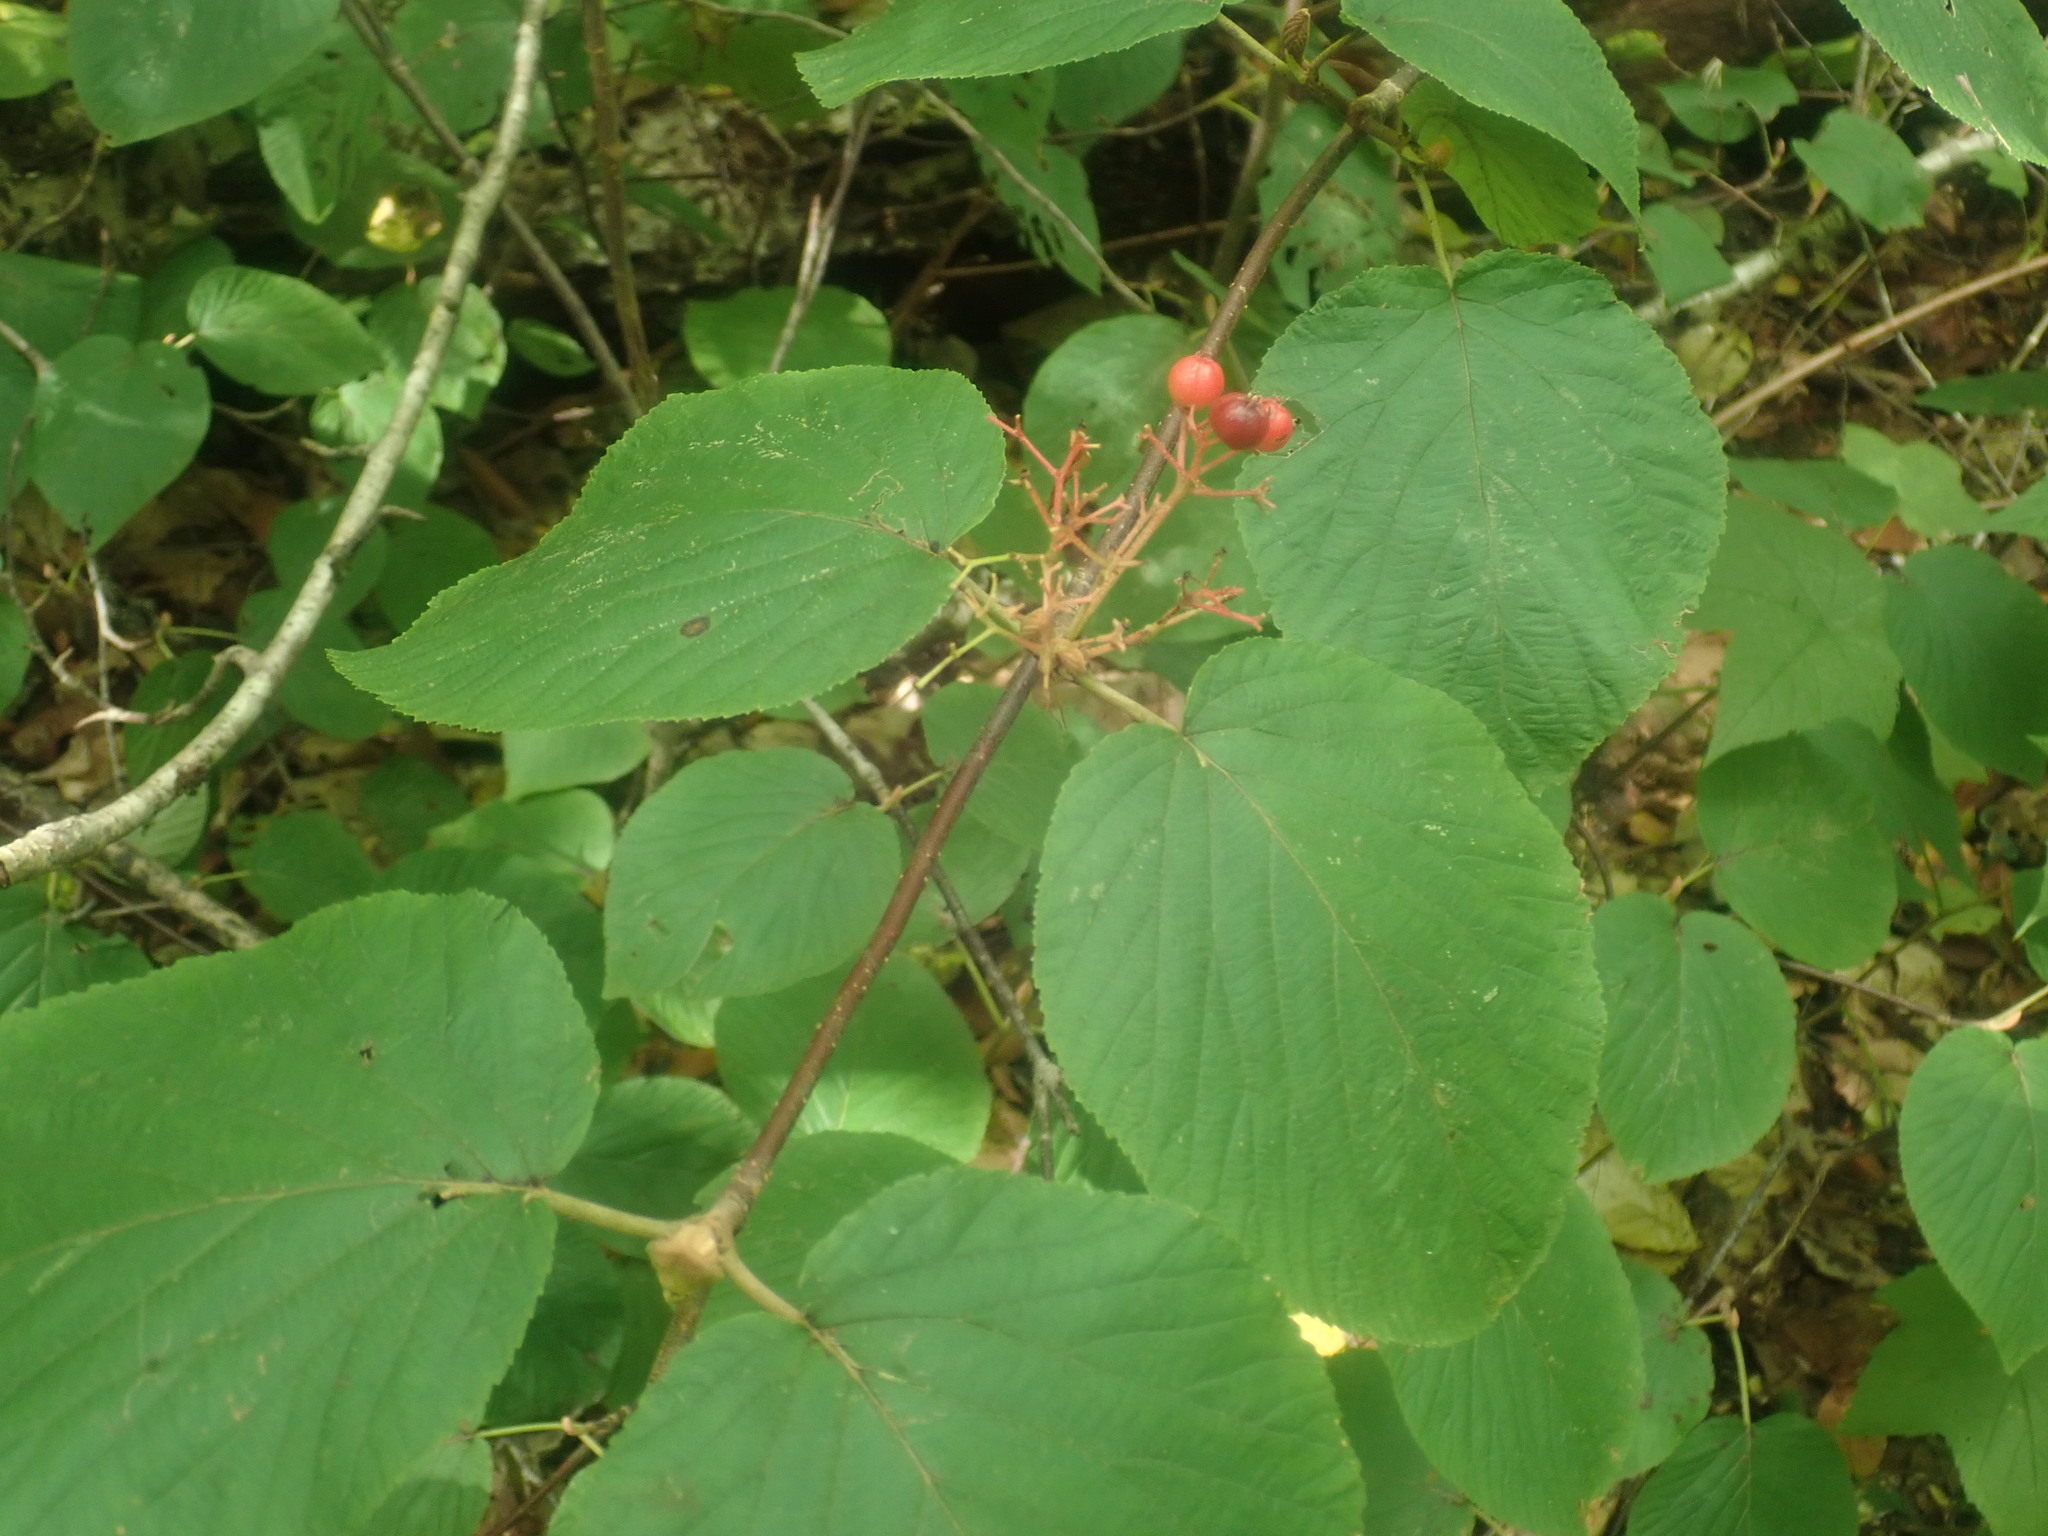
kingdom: Plantae
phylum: Tracheophyta
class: Magnoliopsida
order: Dipsacales
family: Viburnaceae
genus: Viburnum
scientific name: Viburnum lantanoides
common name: Hobblebush
